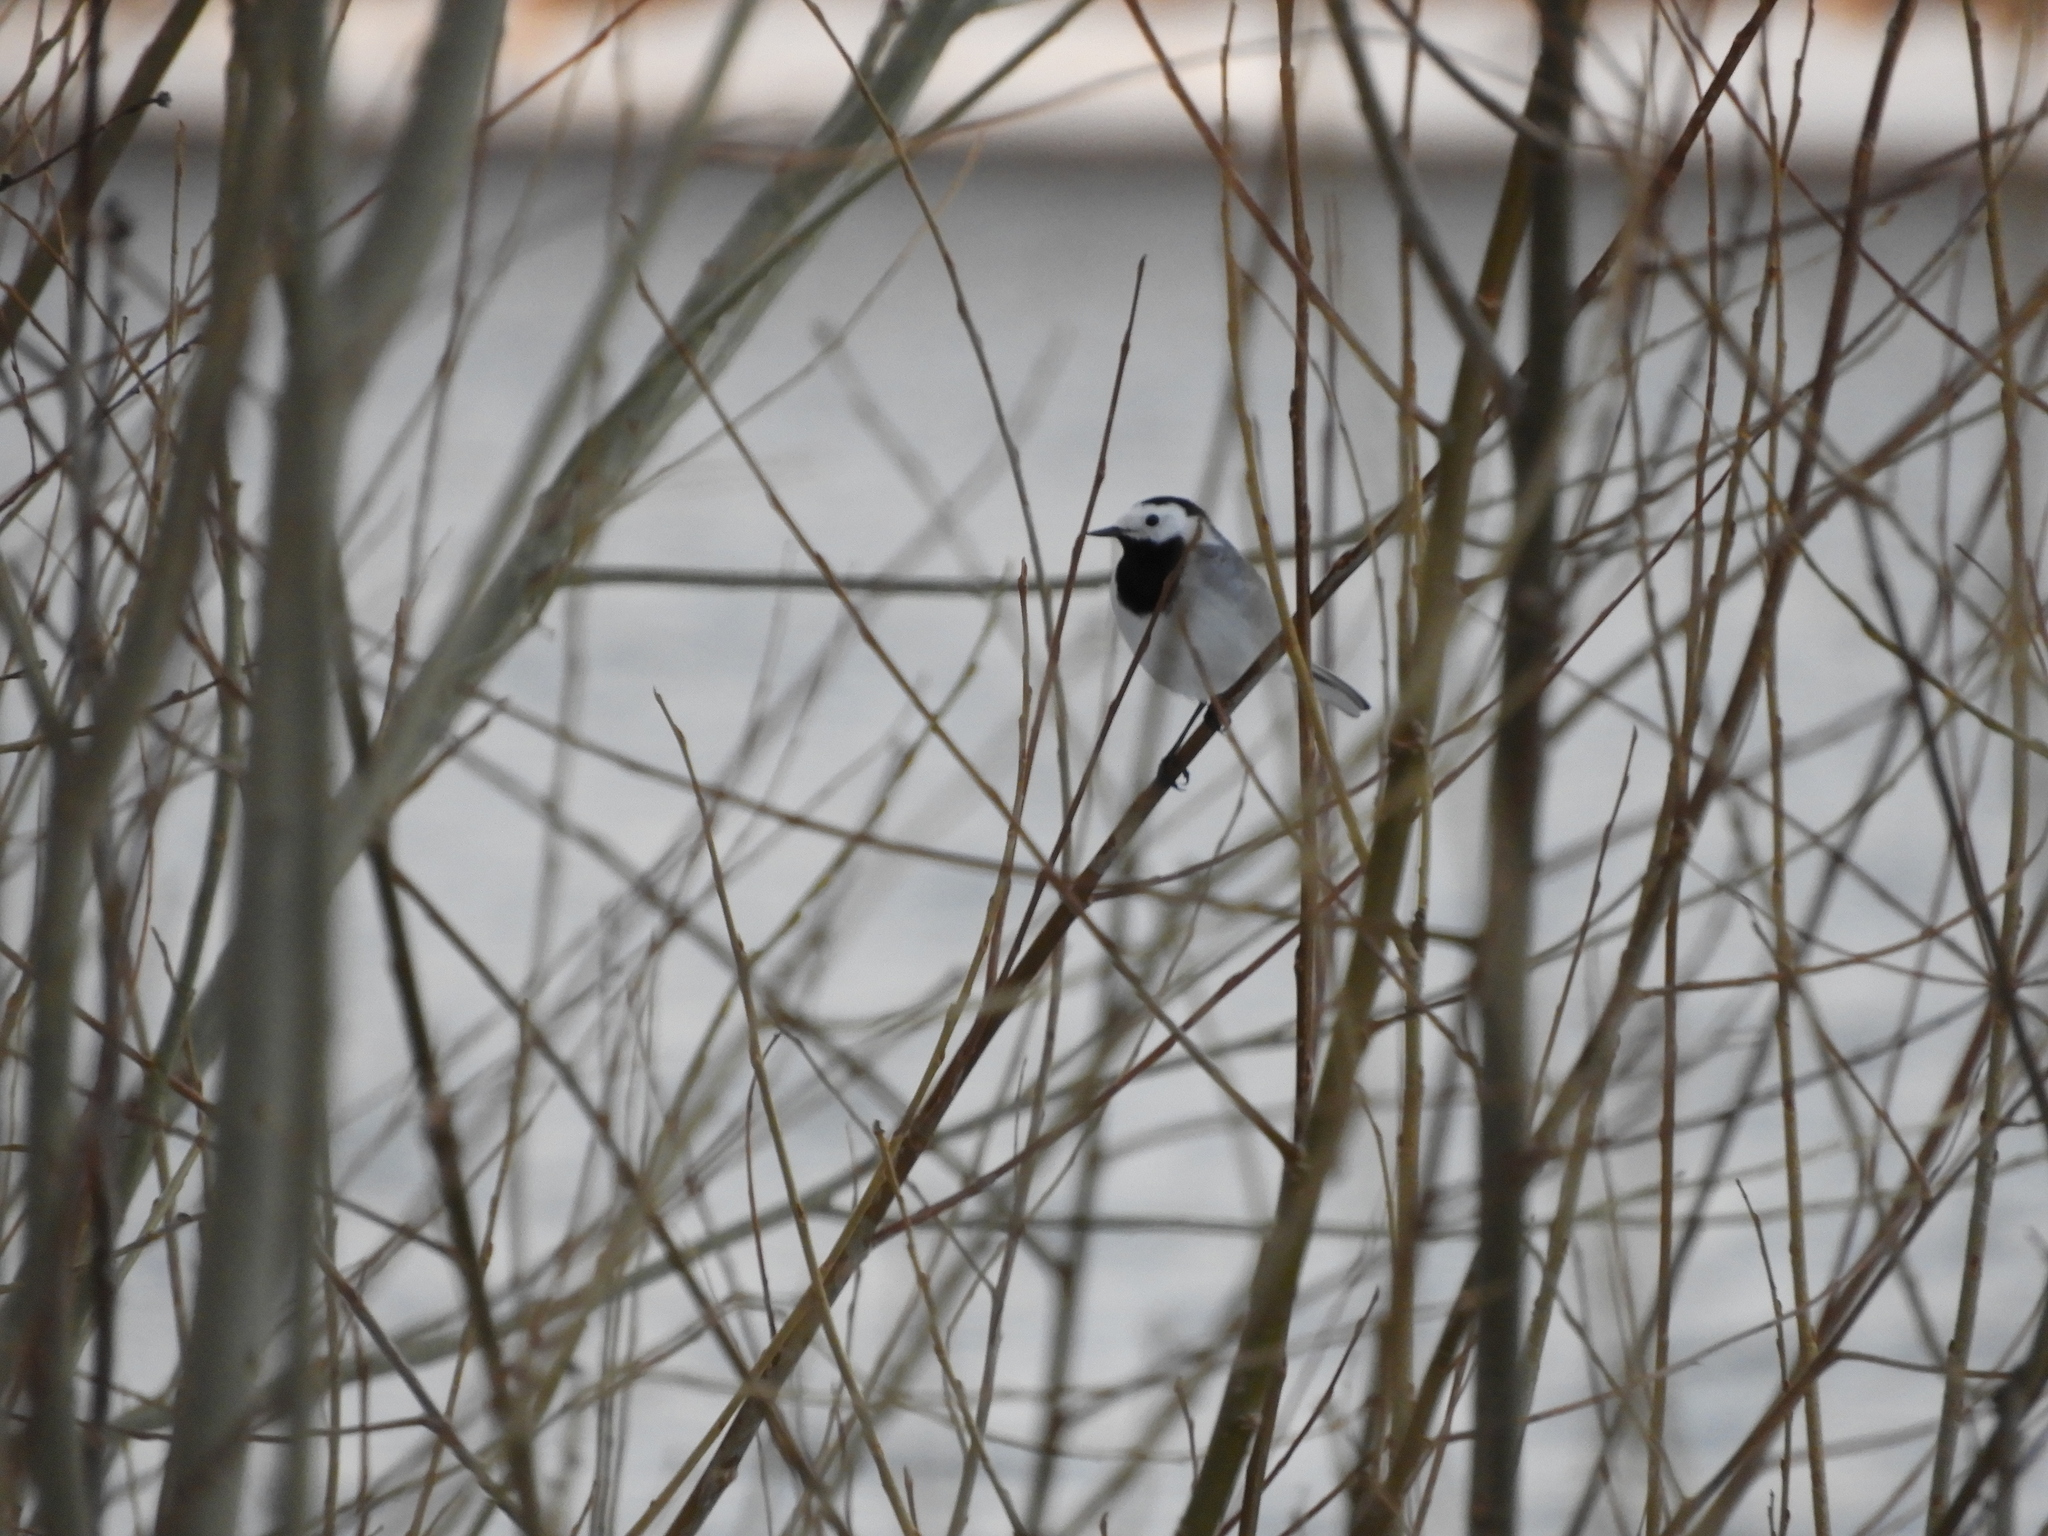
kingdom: Animalia
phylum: Chordata
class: Aves
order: Passeriformes
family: Motacillidae
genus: Motacilla
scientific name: Motacilla alba
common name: White wagtail
